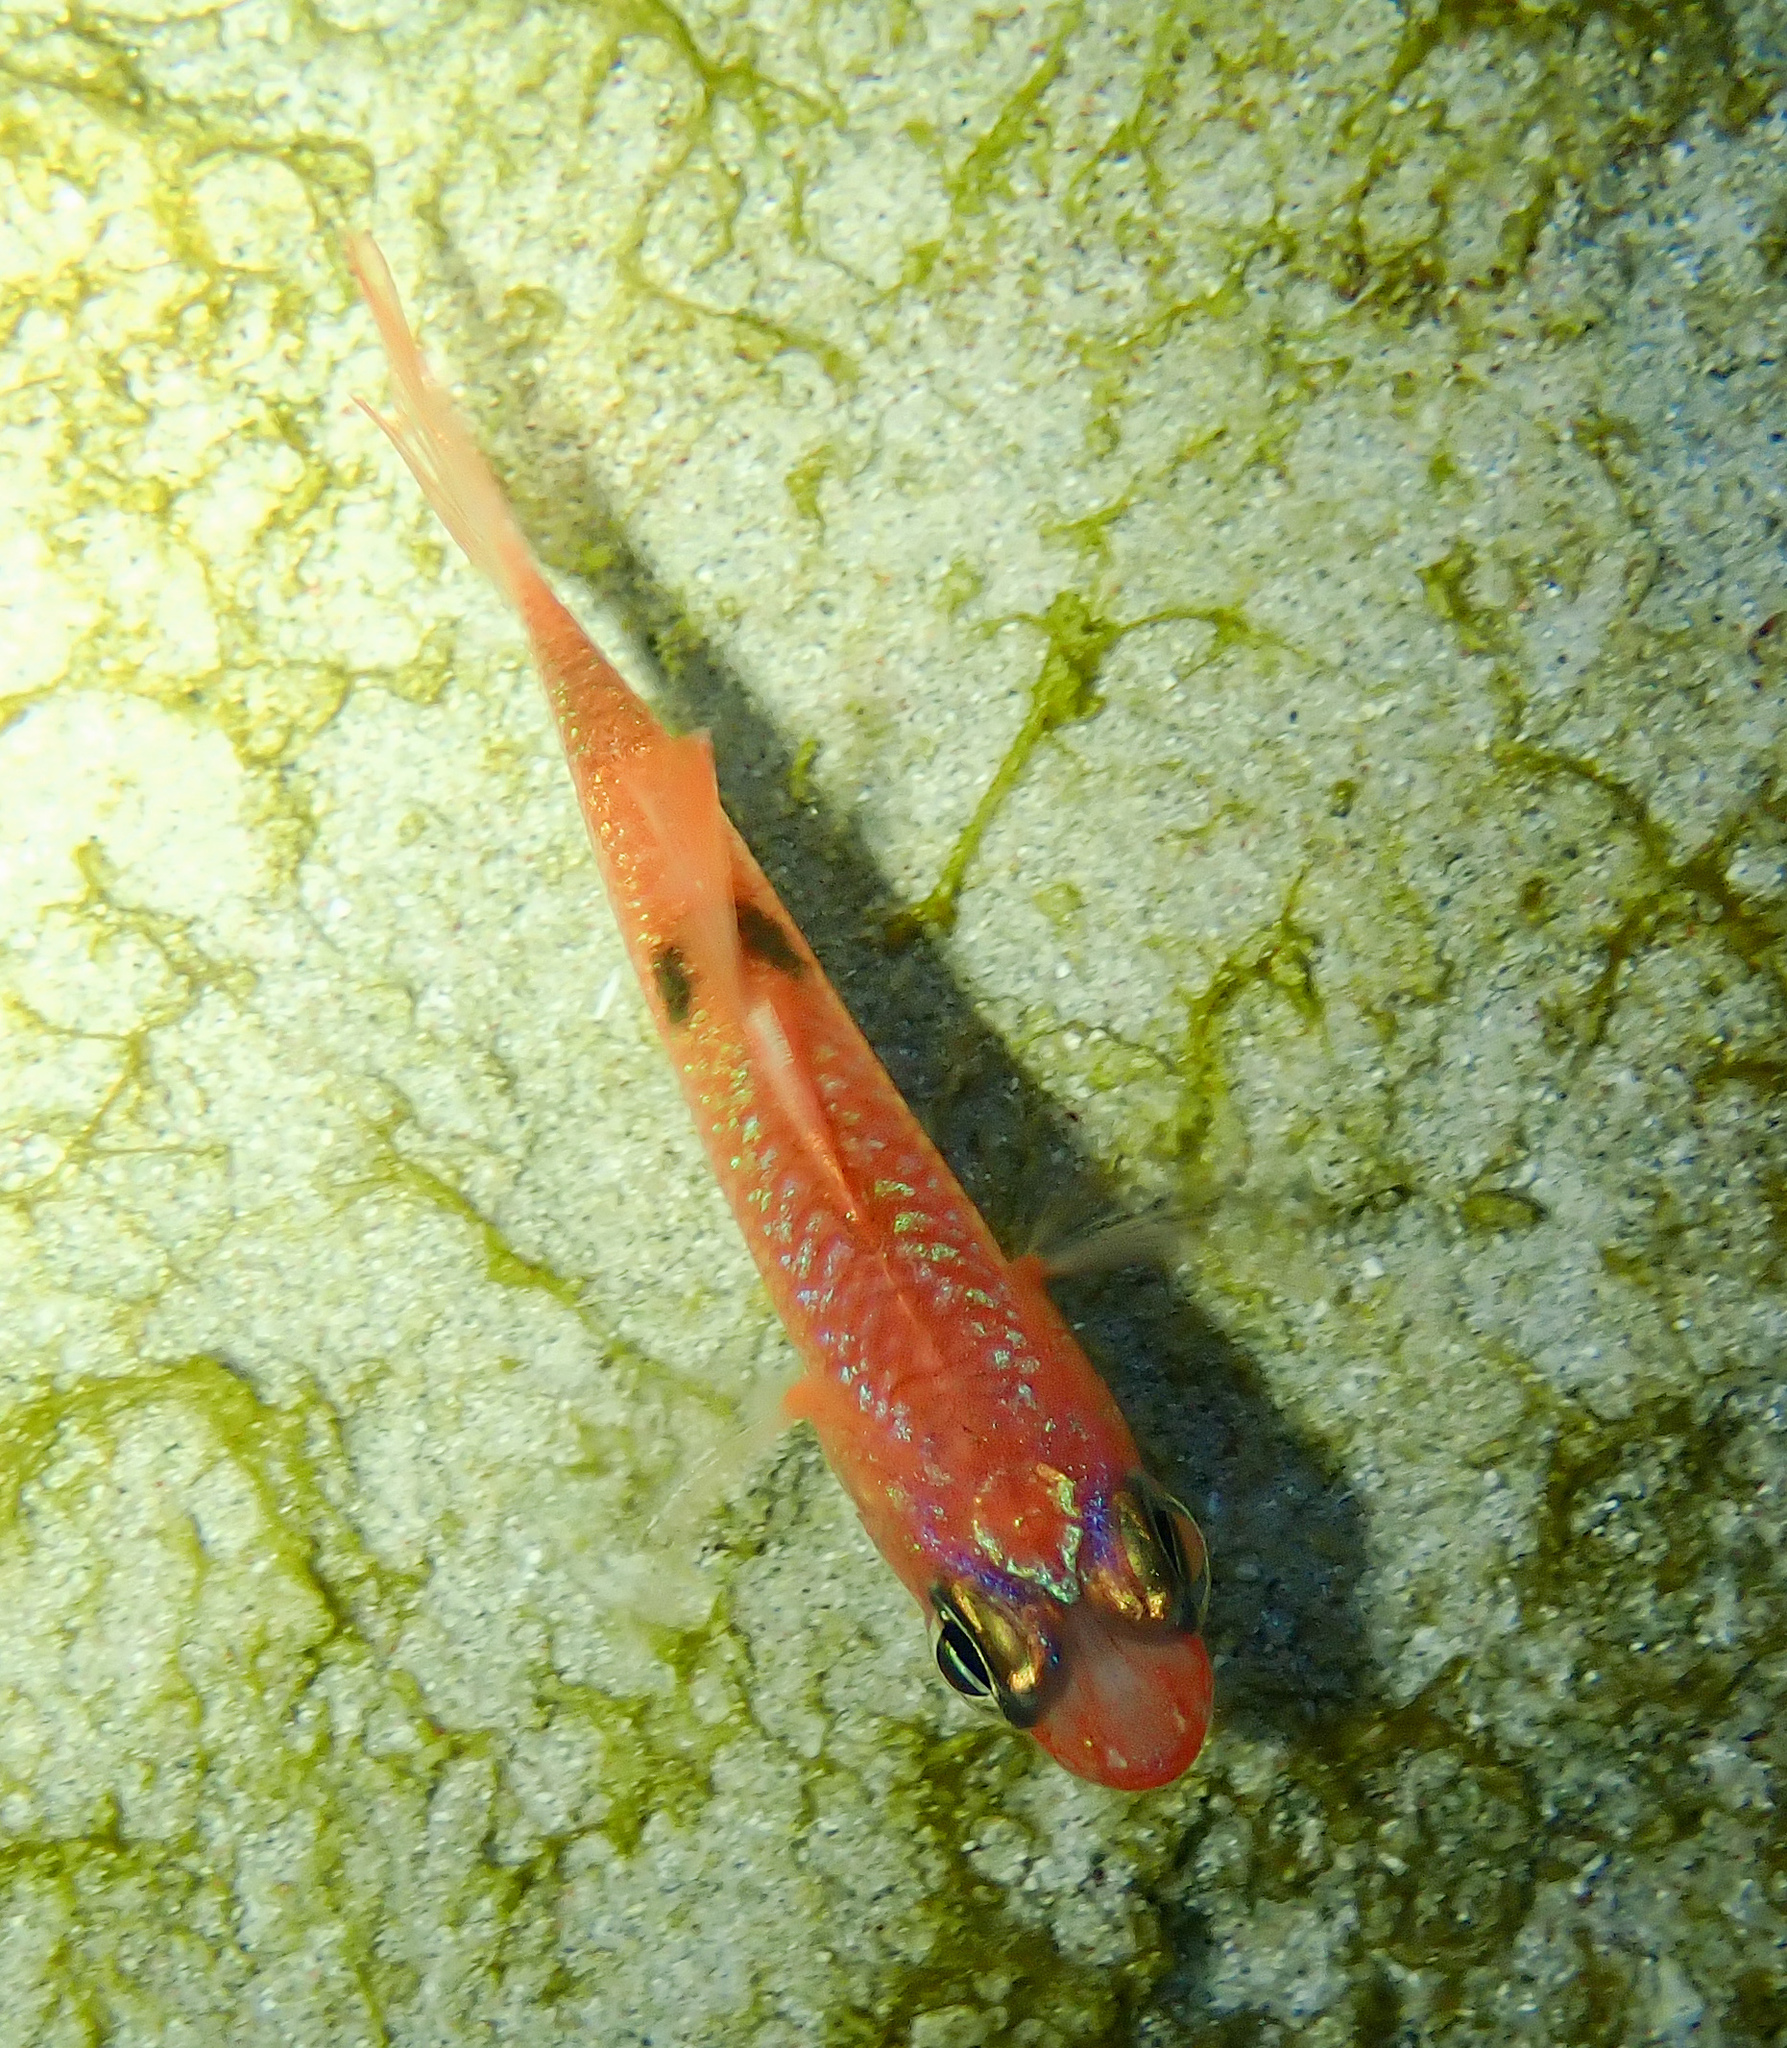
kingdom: Animalia
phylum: Chordata
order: Perciformes
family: Apogonidae
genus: Apogon
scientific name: Apogon maculatus
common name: Flamefish
